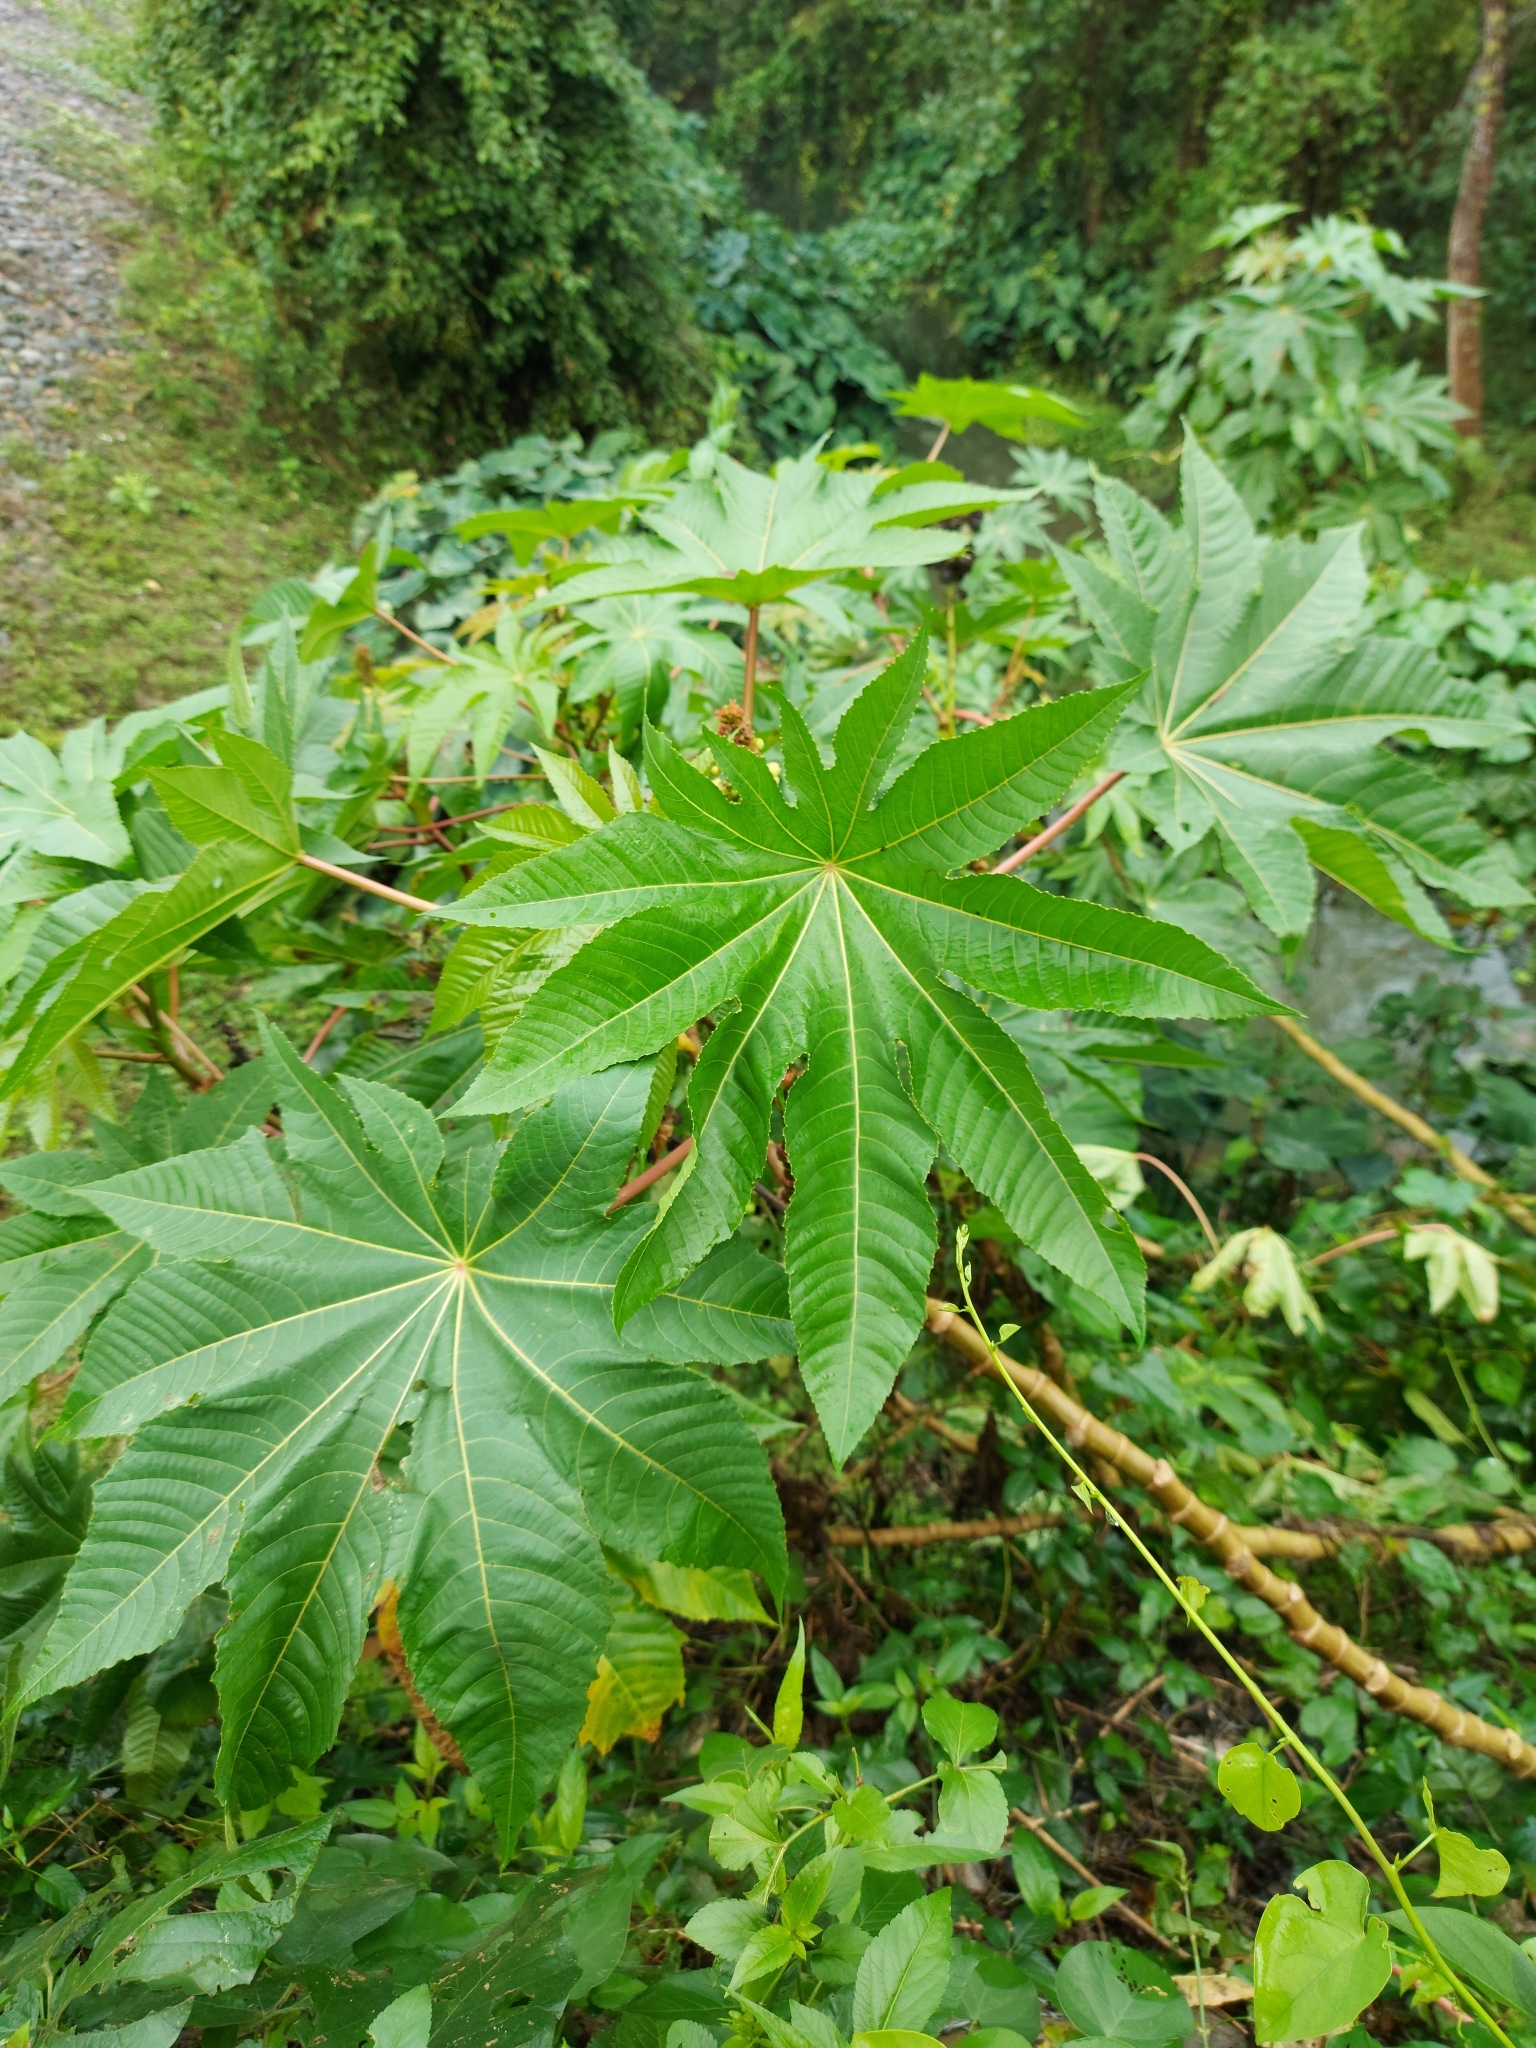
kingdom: Plantae
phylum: Tracheophyta
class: Magnoliopsida
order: Malpighiales
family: Euphorbiaceae
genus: Ricinus
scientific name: Ricinus communis
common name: Castor-oil-plant
